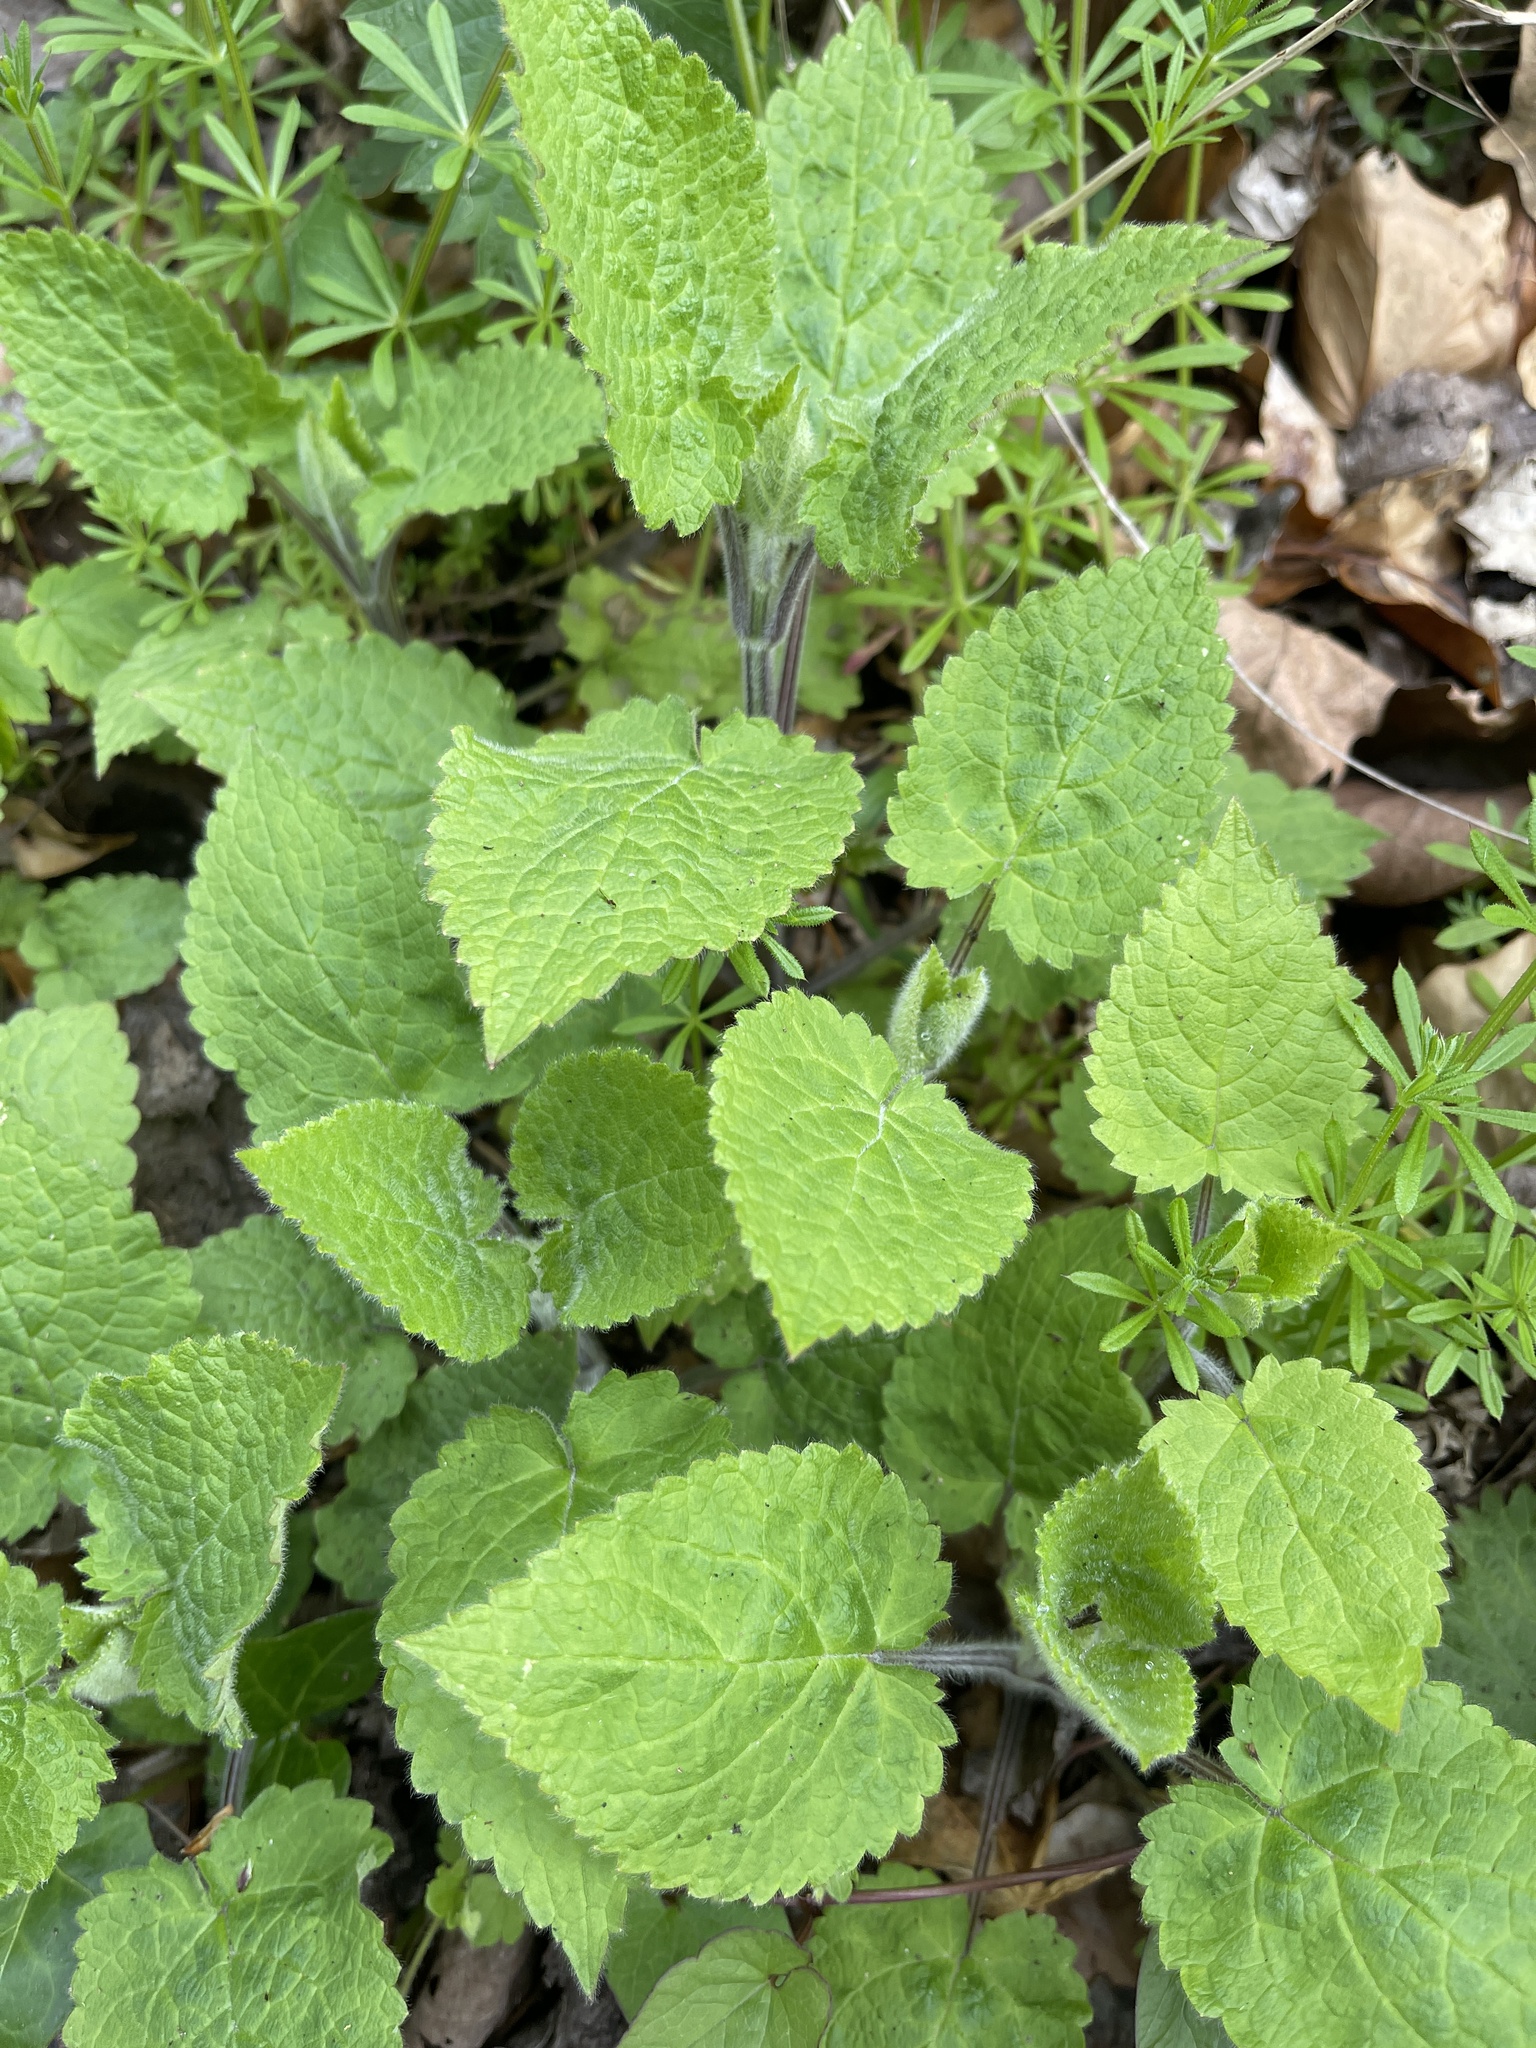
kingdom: Plantae
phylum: Tracheophyta
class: Magnoliopsida
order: Lamiales
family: Lamiaceae
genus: Stachys
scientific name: Stachys sylvatica
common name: Hedge woundwort
